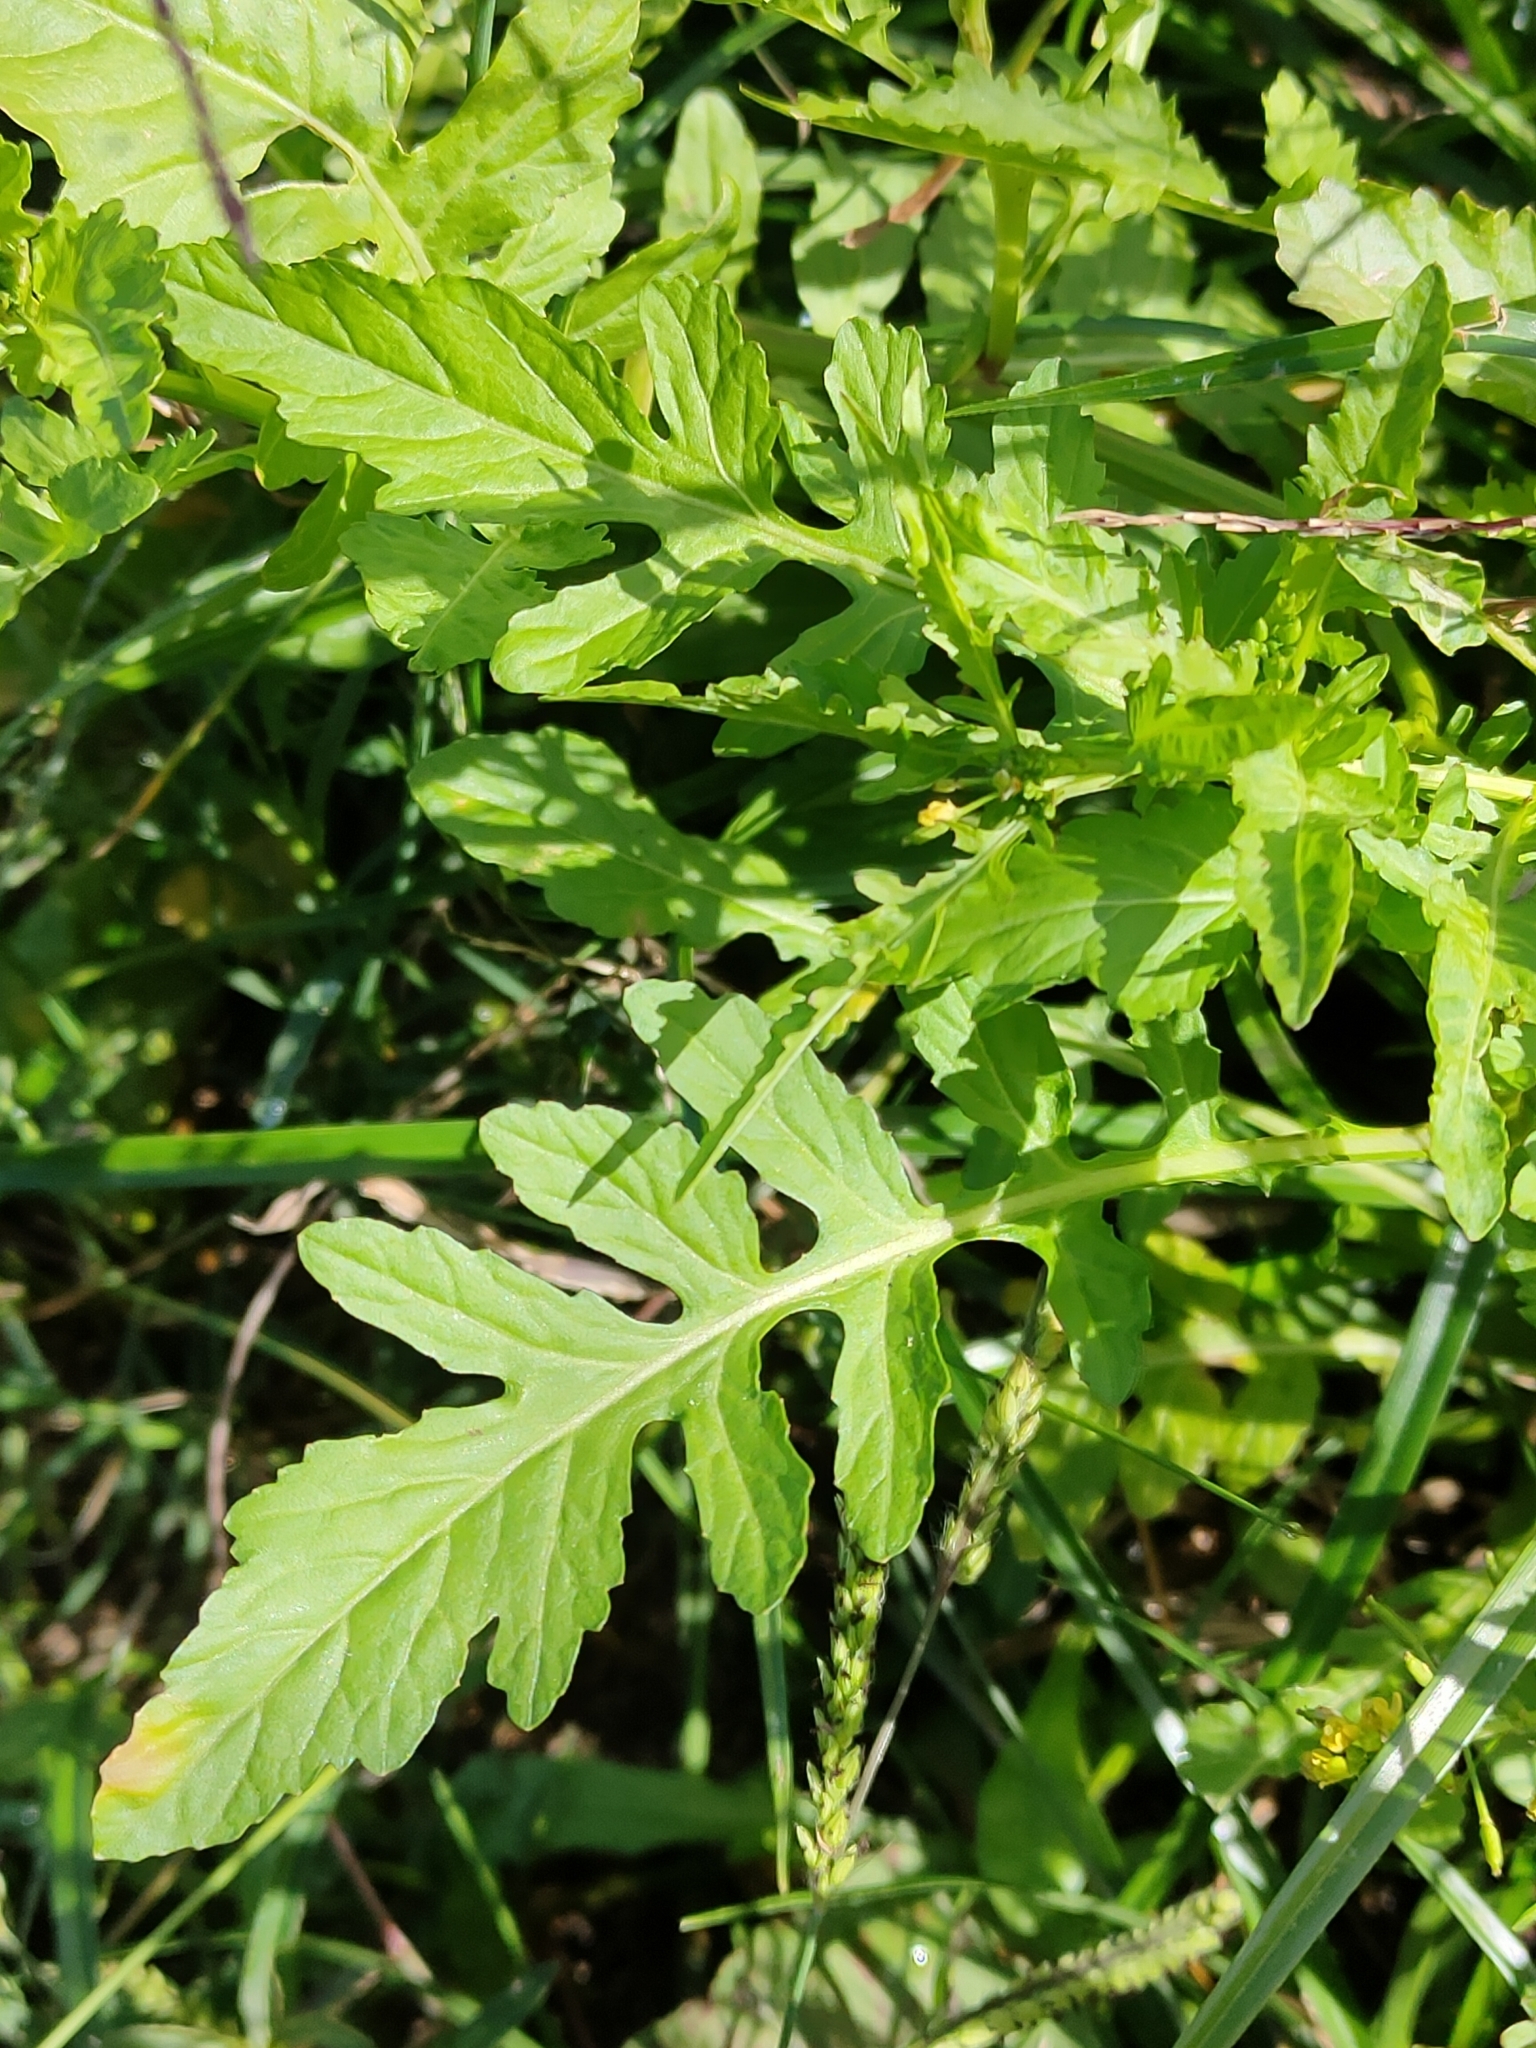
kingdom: Plantae
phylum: Tracheophyta
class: Magnoliopsida
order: Brassicales
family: Brassicaceae
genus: Rorippa
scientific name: Rorippa palustris
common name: Marsh yellow-cress
